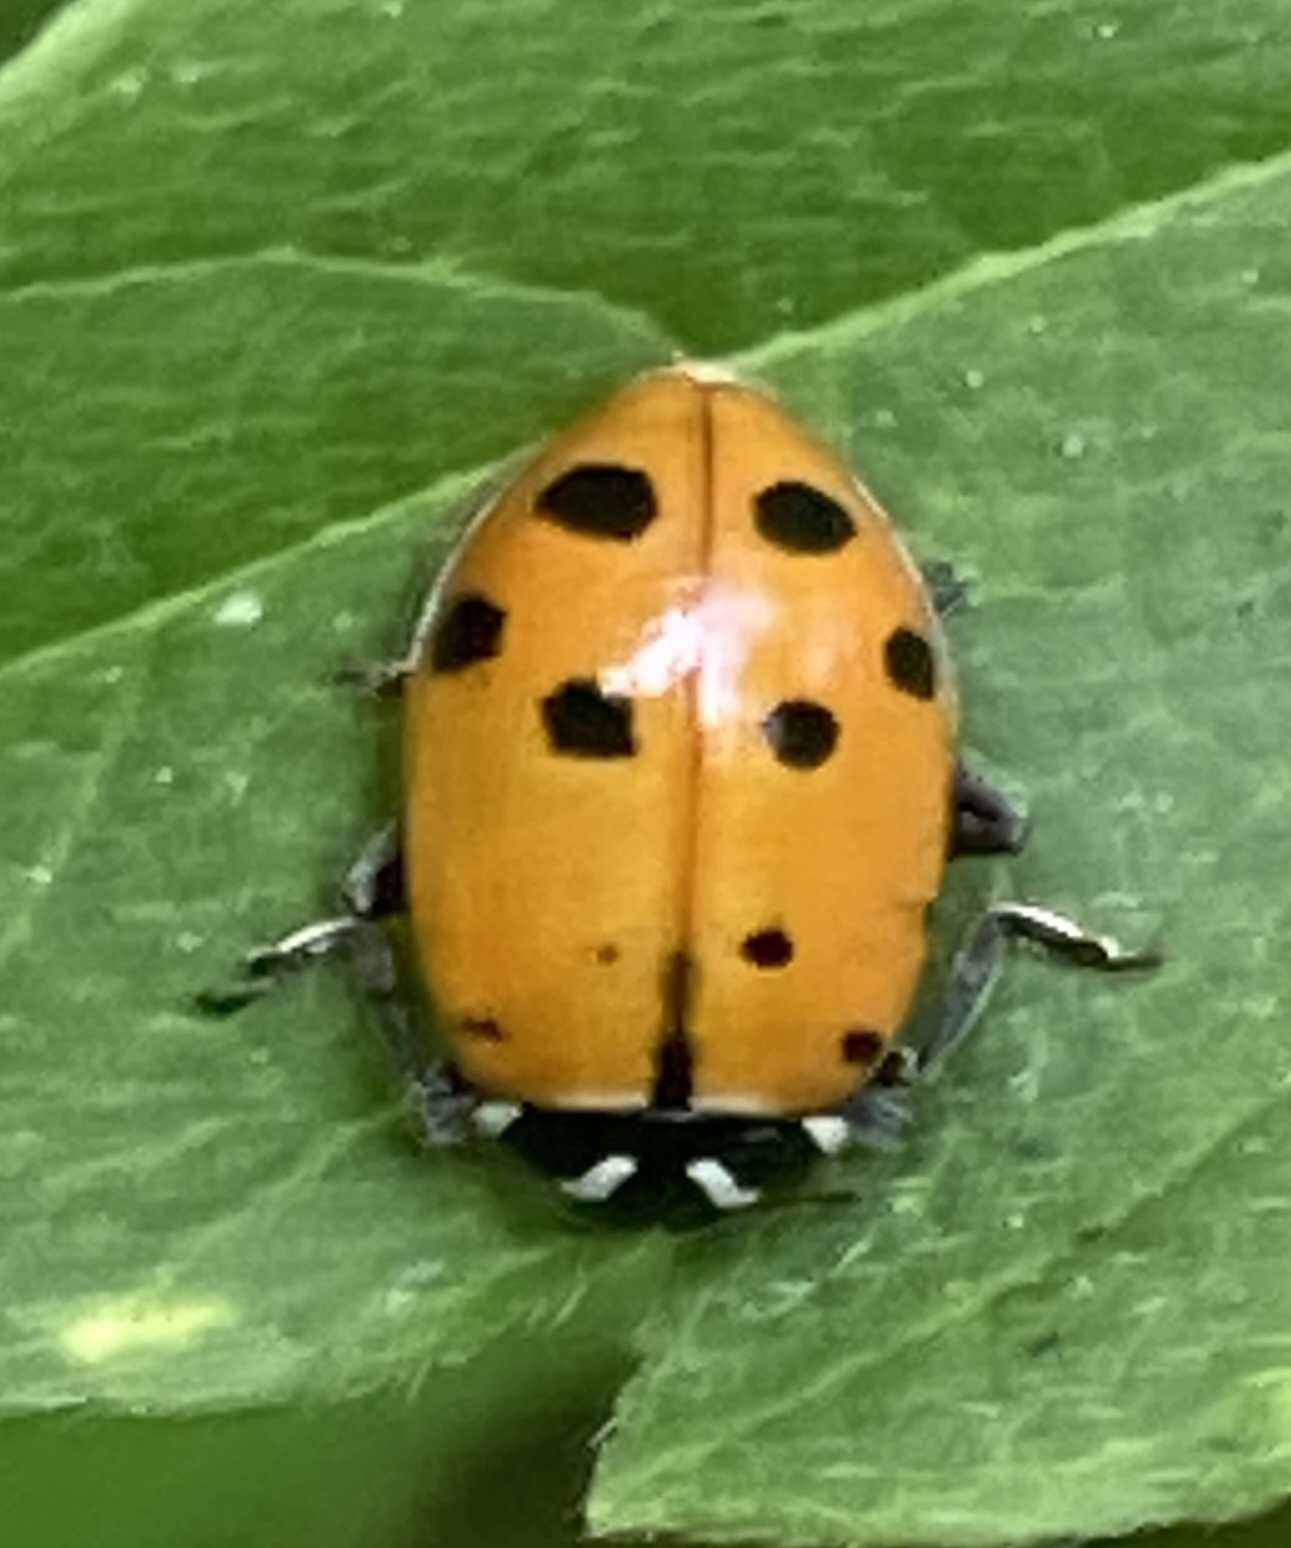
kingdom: Animalia
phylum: Arthropoda
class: Insecta
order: Coleoptera
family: Coccinellidae
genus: Hippodamia
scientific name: Hippodamia convergens
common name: Convergent lady beetle
